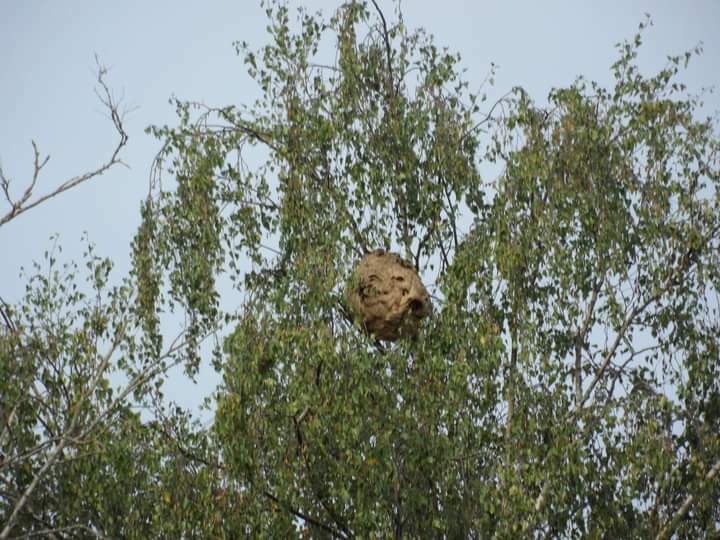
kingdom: Animalia
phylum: Arthropoda
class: Insecta
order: Hymenoptera
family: Vespidae
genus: Vespa
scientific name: Vespa velutina
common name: Asian hornet
